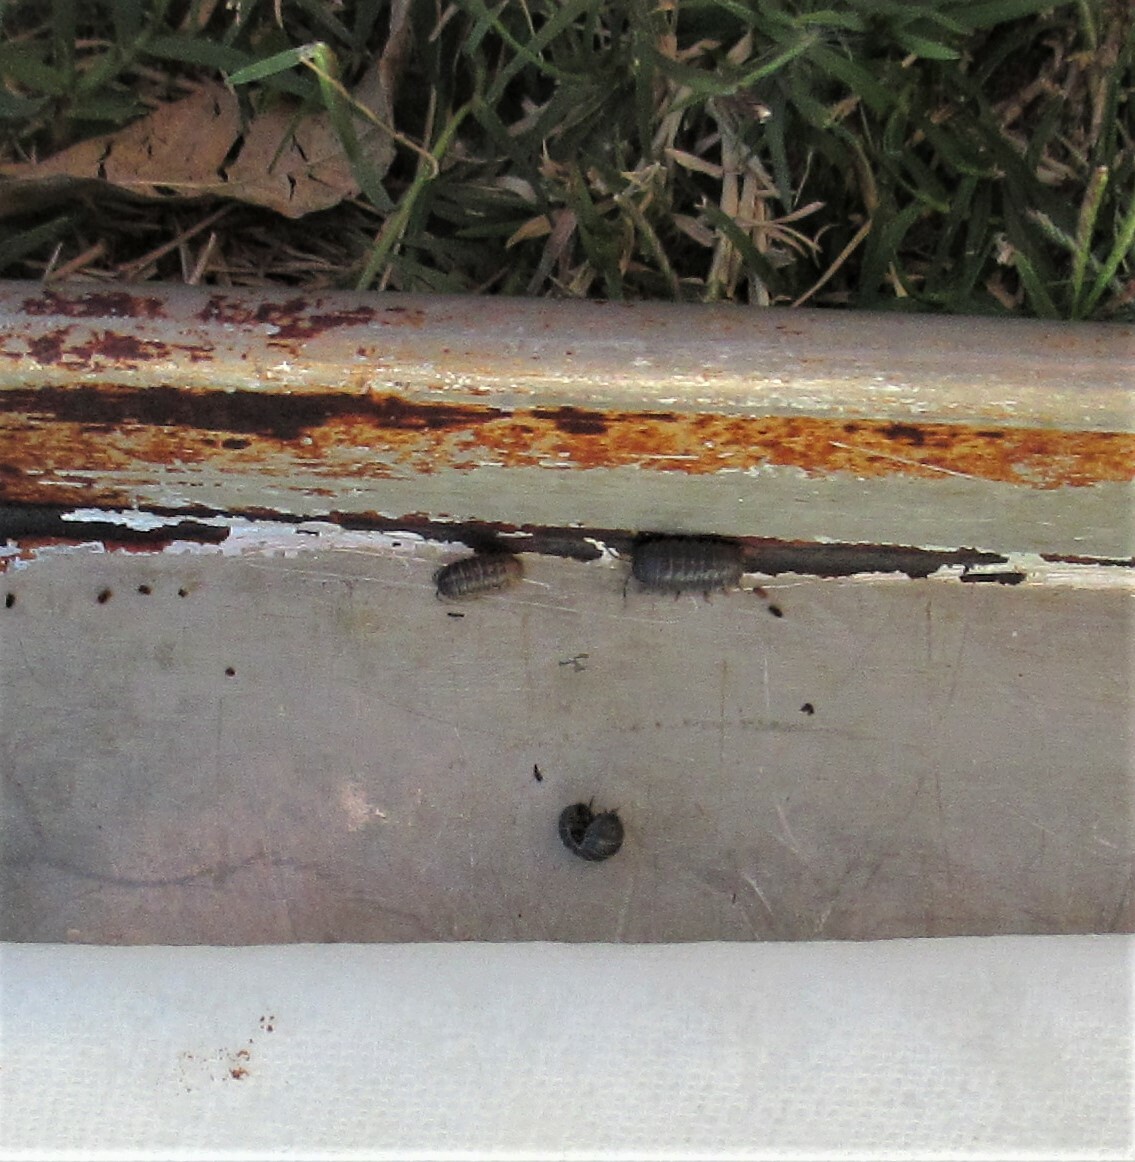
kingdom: Animalia
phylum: Arthropoda
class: Malacostraca
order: Isopoda
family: Armadillidiidae
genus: Armadillidium
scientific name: Armadillidium vulgare
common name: Common pill woodlouse
